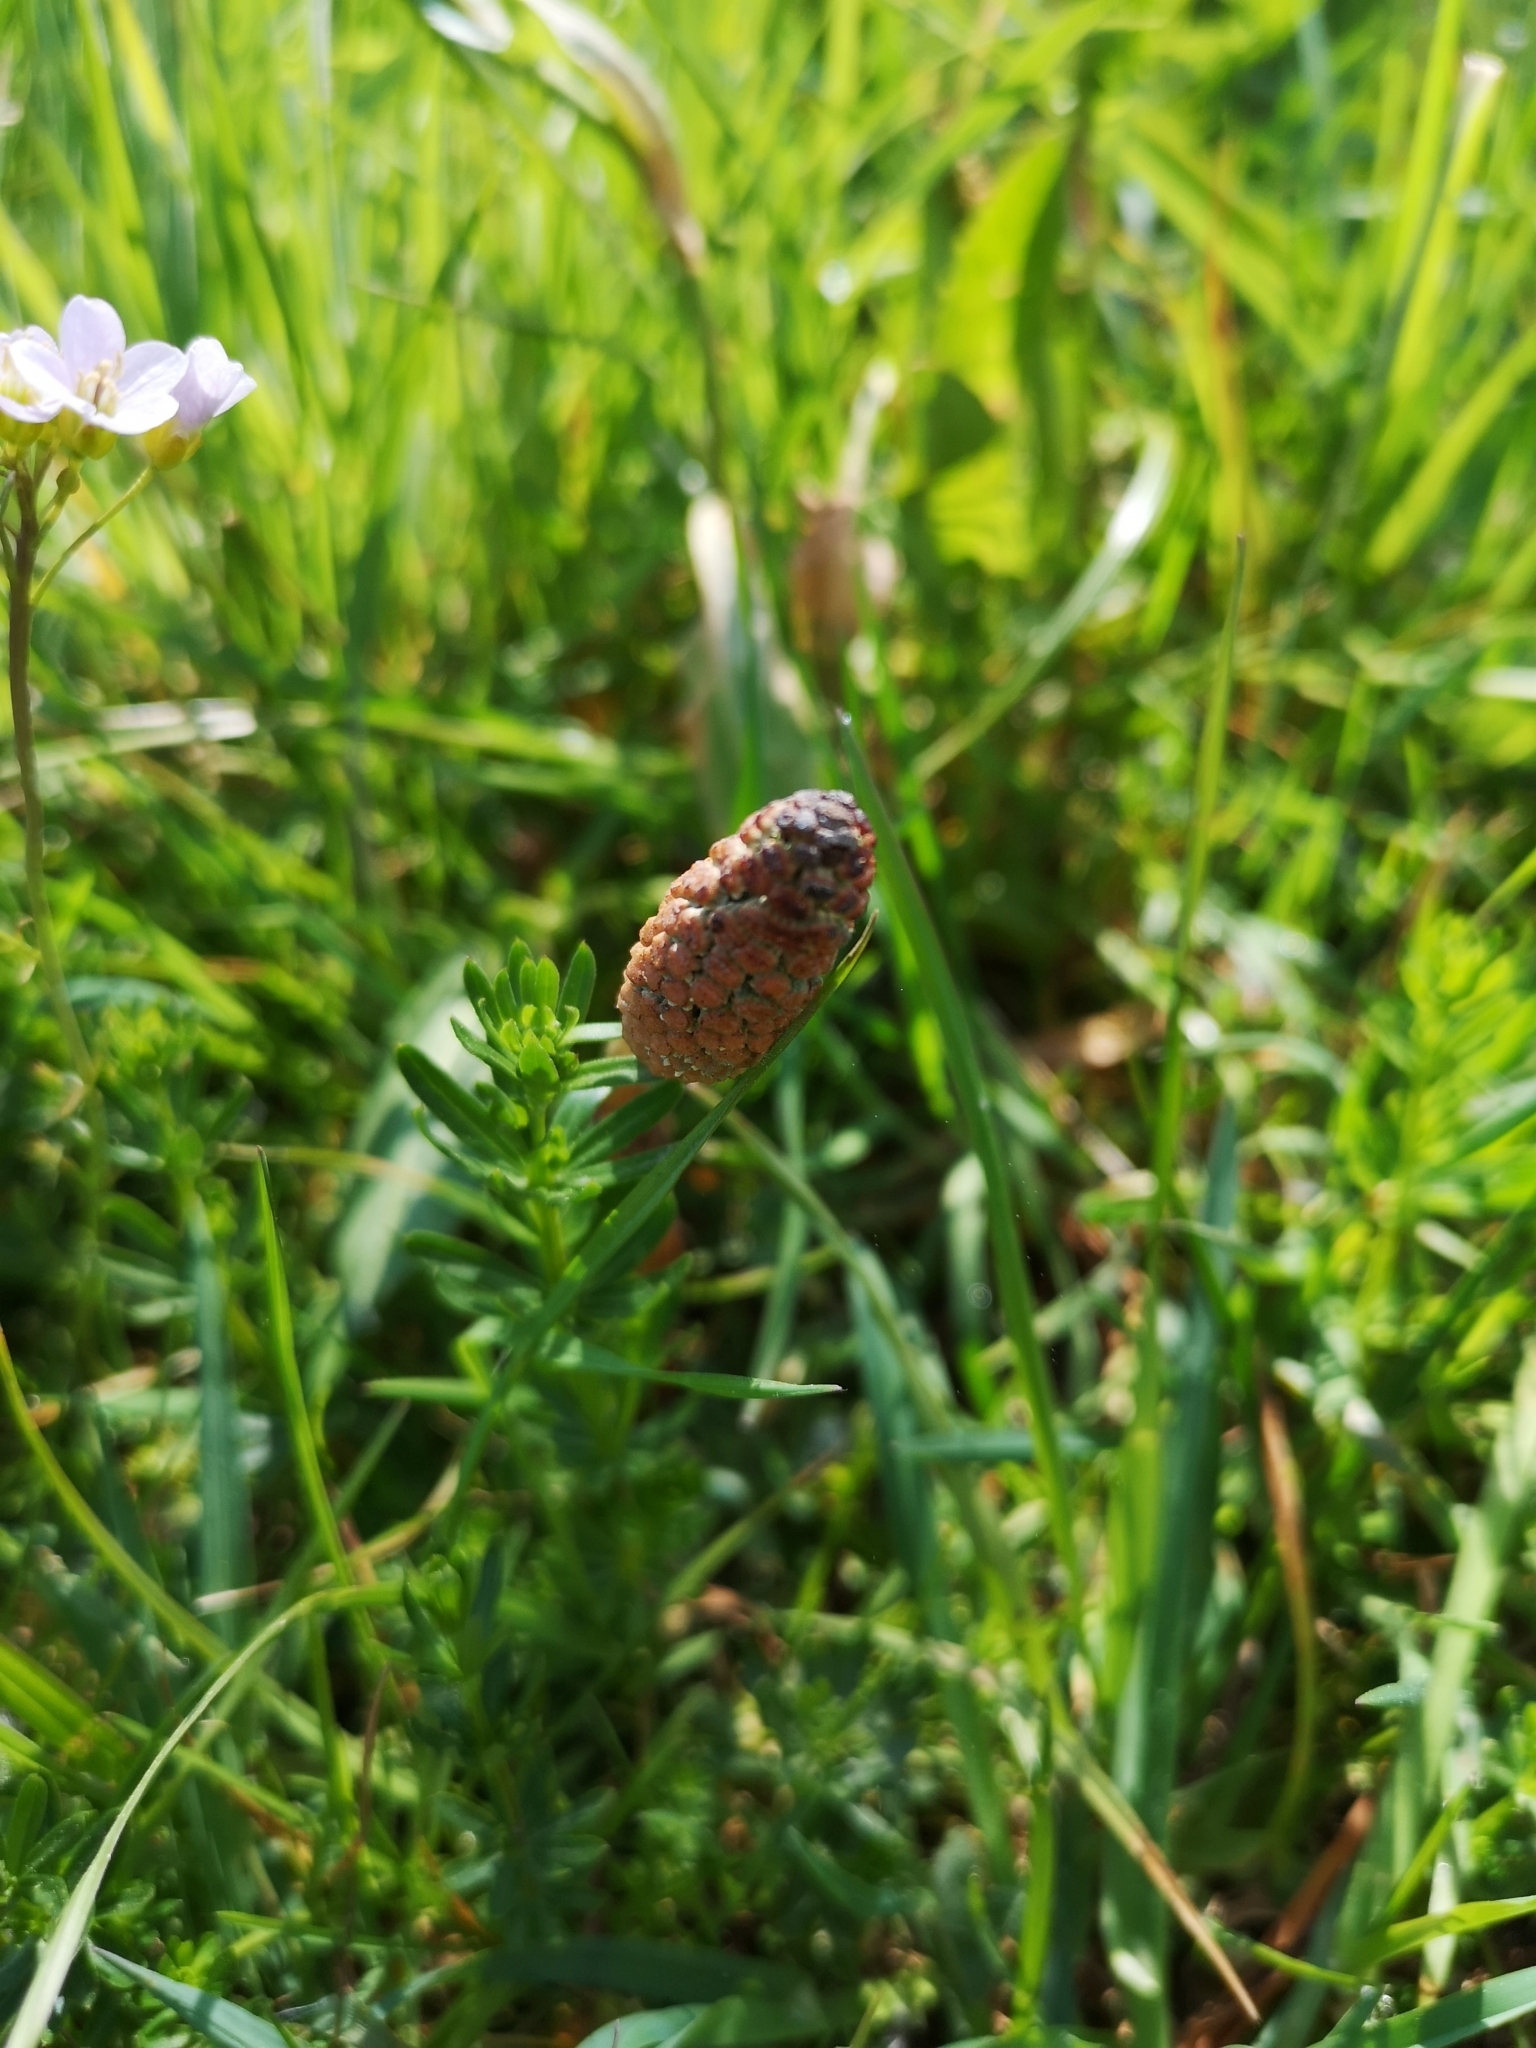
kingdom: Plantae
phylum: Tracheophyta
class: Polypodiopsida
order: Equisetales
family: Equisetaceae
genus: Equisetum
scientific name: Equisetum arvense
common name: Field horsetail
